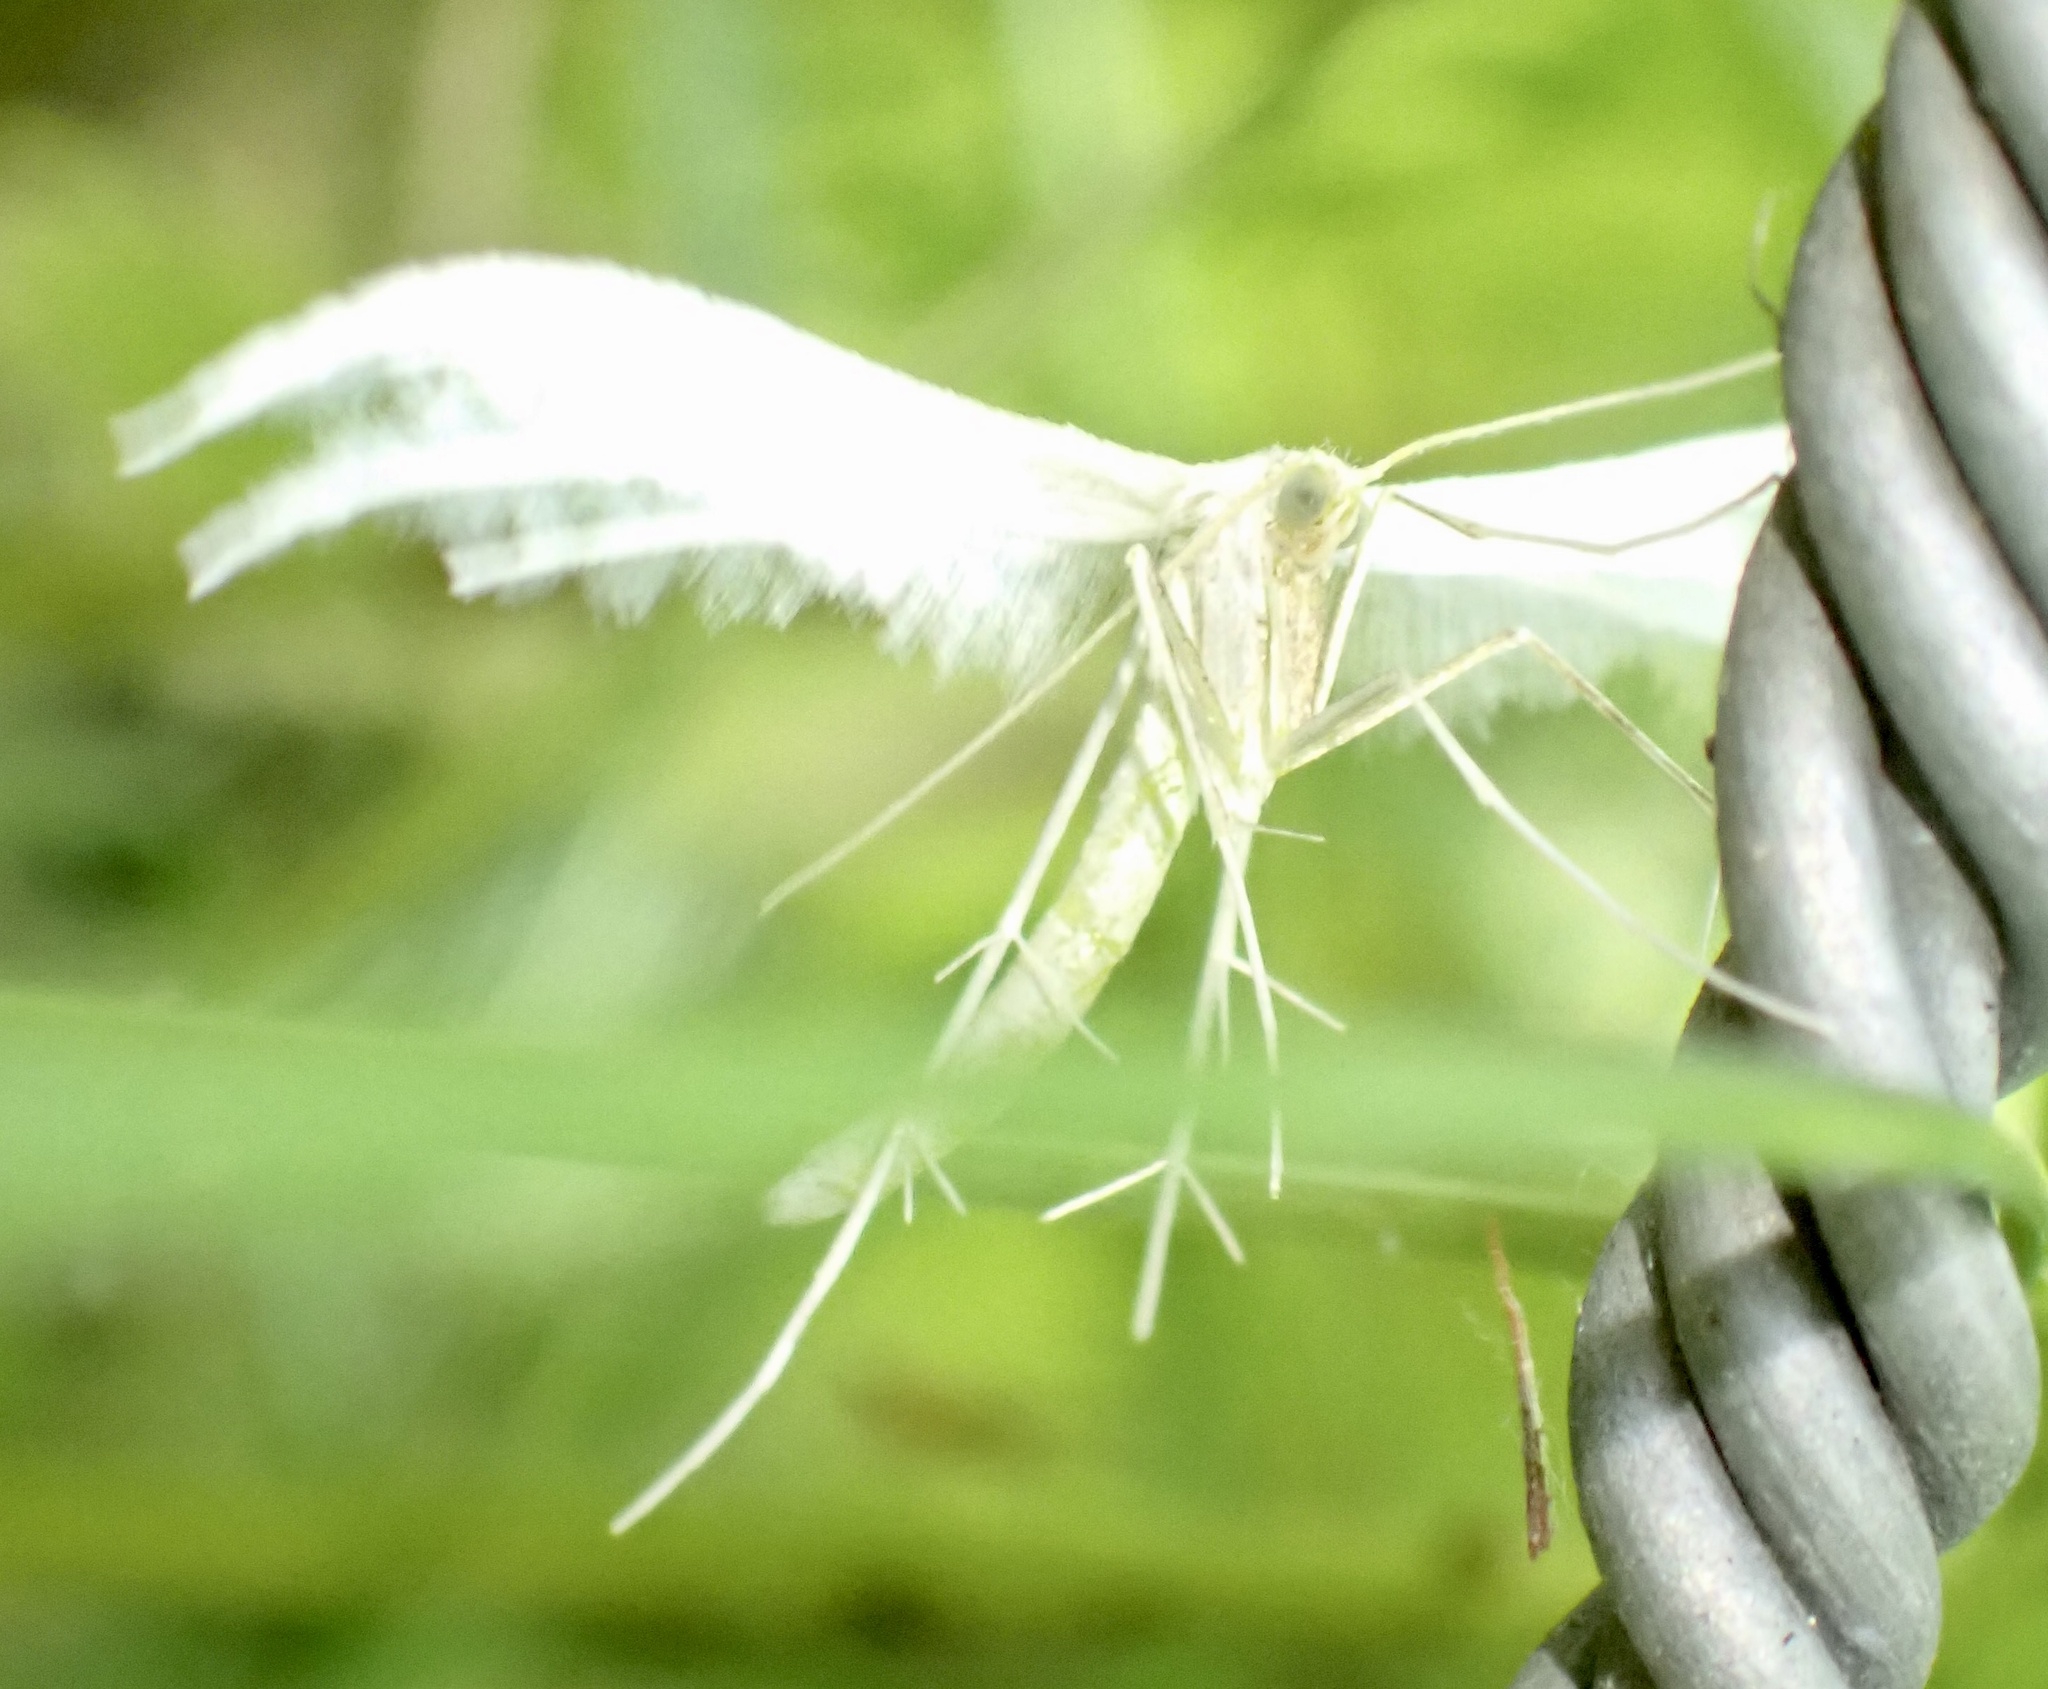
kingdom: Animalia
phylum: Arthropoda
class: Insecta
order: Lepidoptera
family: Pterophoridae
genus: Pterophorus
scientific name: Pterophorus pentadactyla
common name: White plume moth
